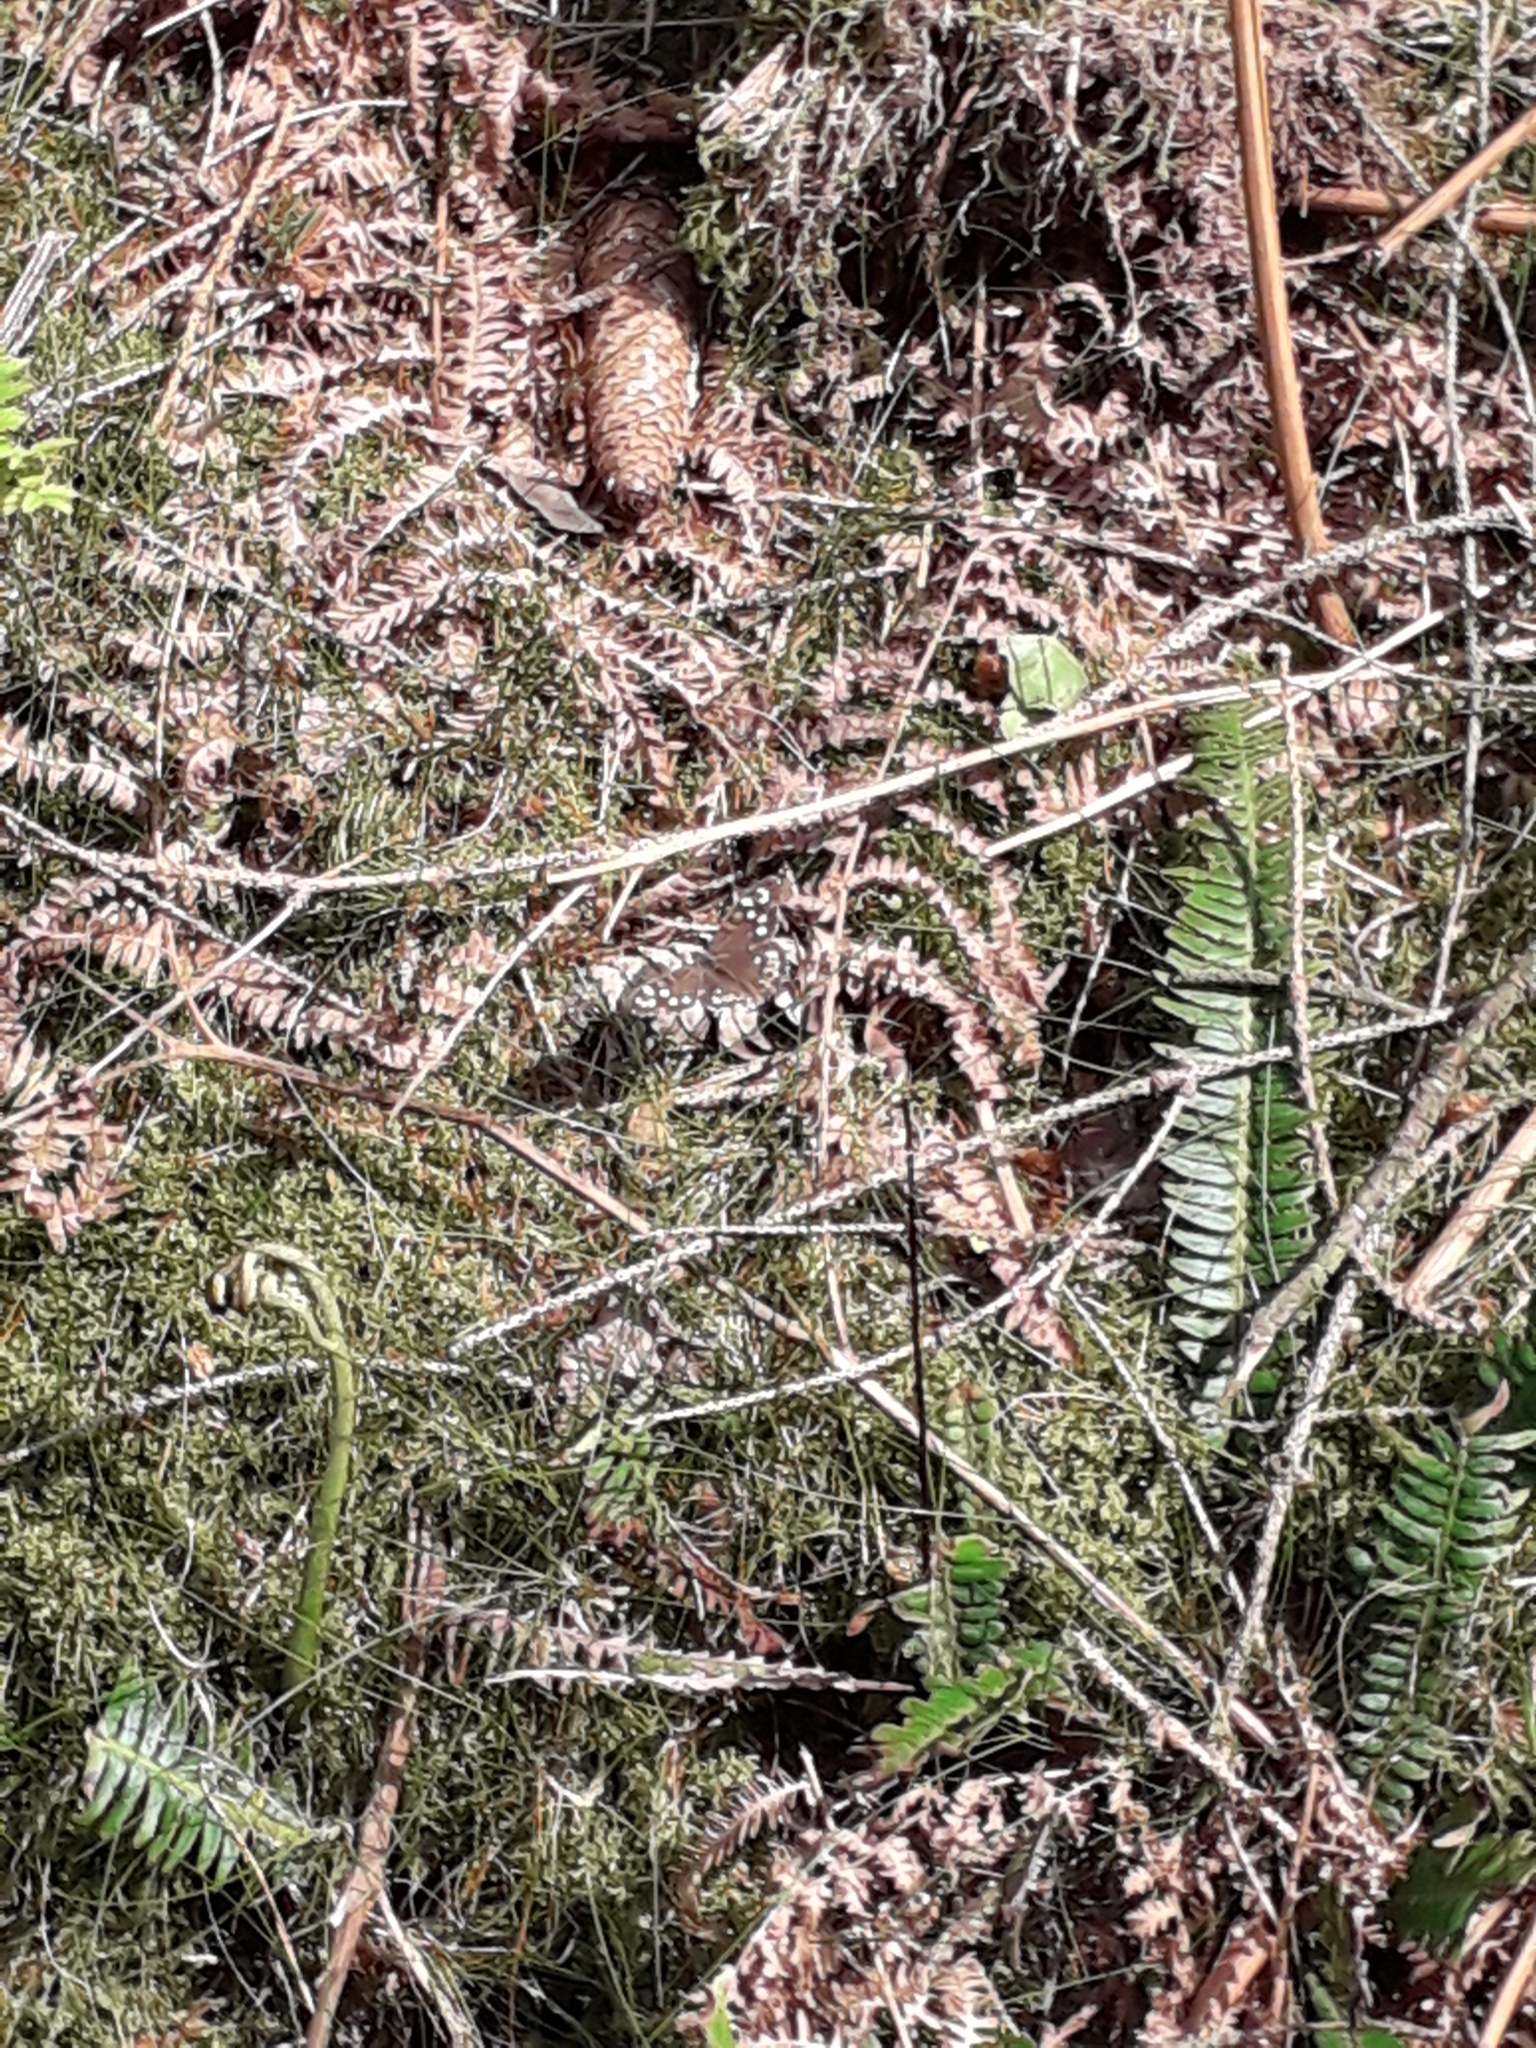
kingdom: Animalia
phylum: Arthropoda
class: Insecta
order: Lepidoptera
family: Nymphalidae
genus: Pararge
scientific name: Pararge aegeria
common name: Speckled wood
